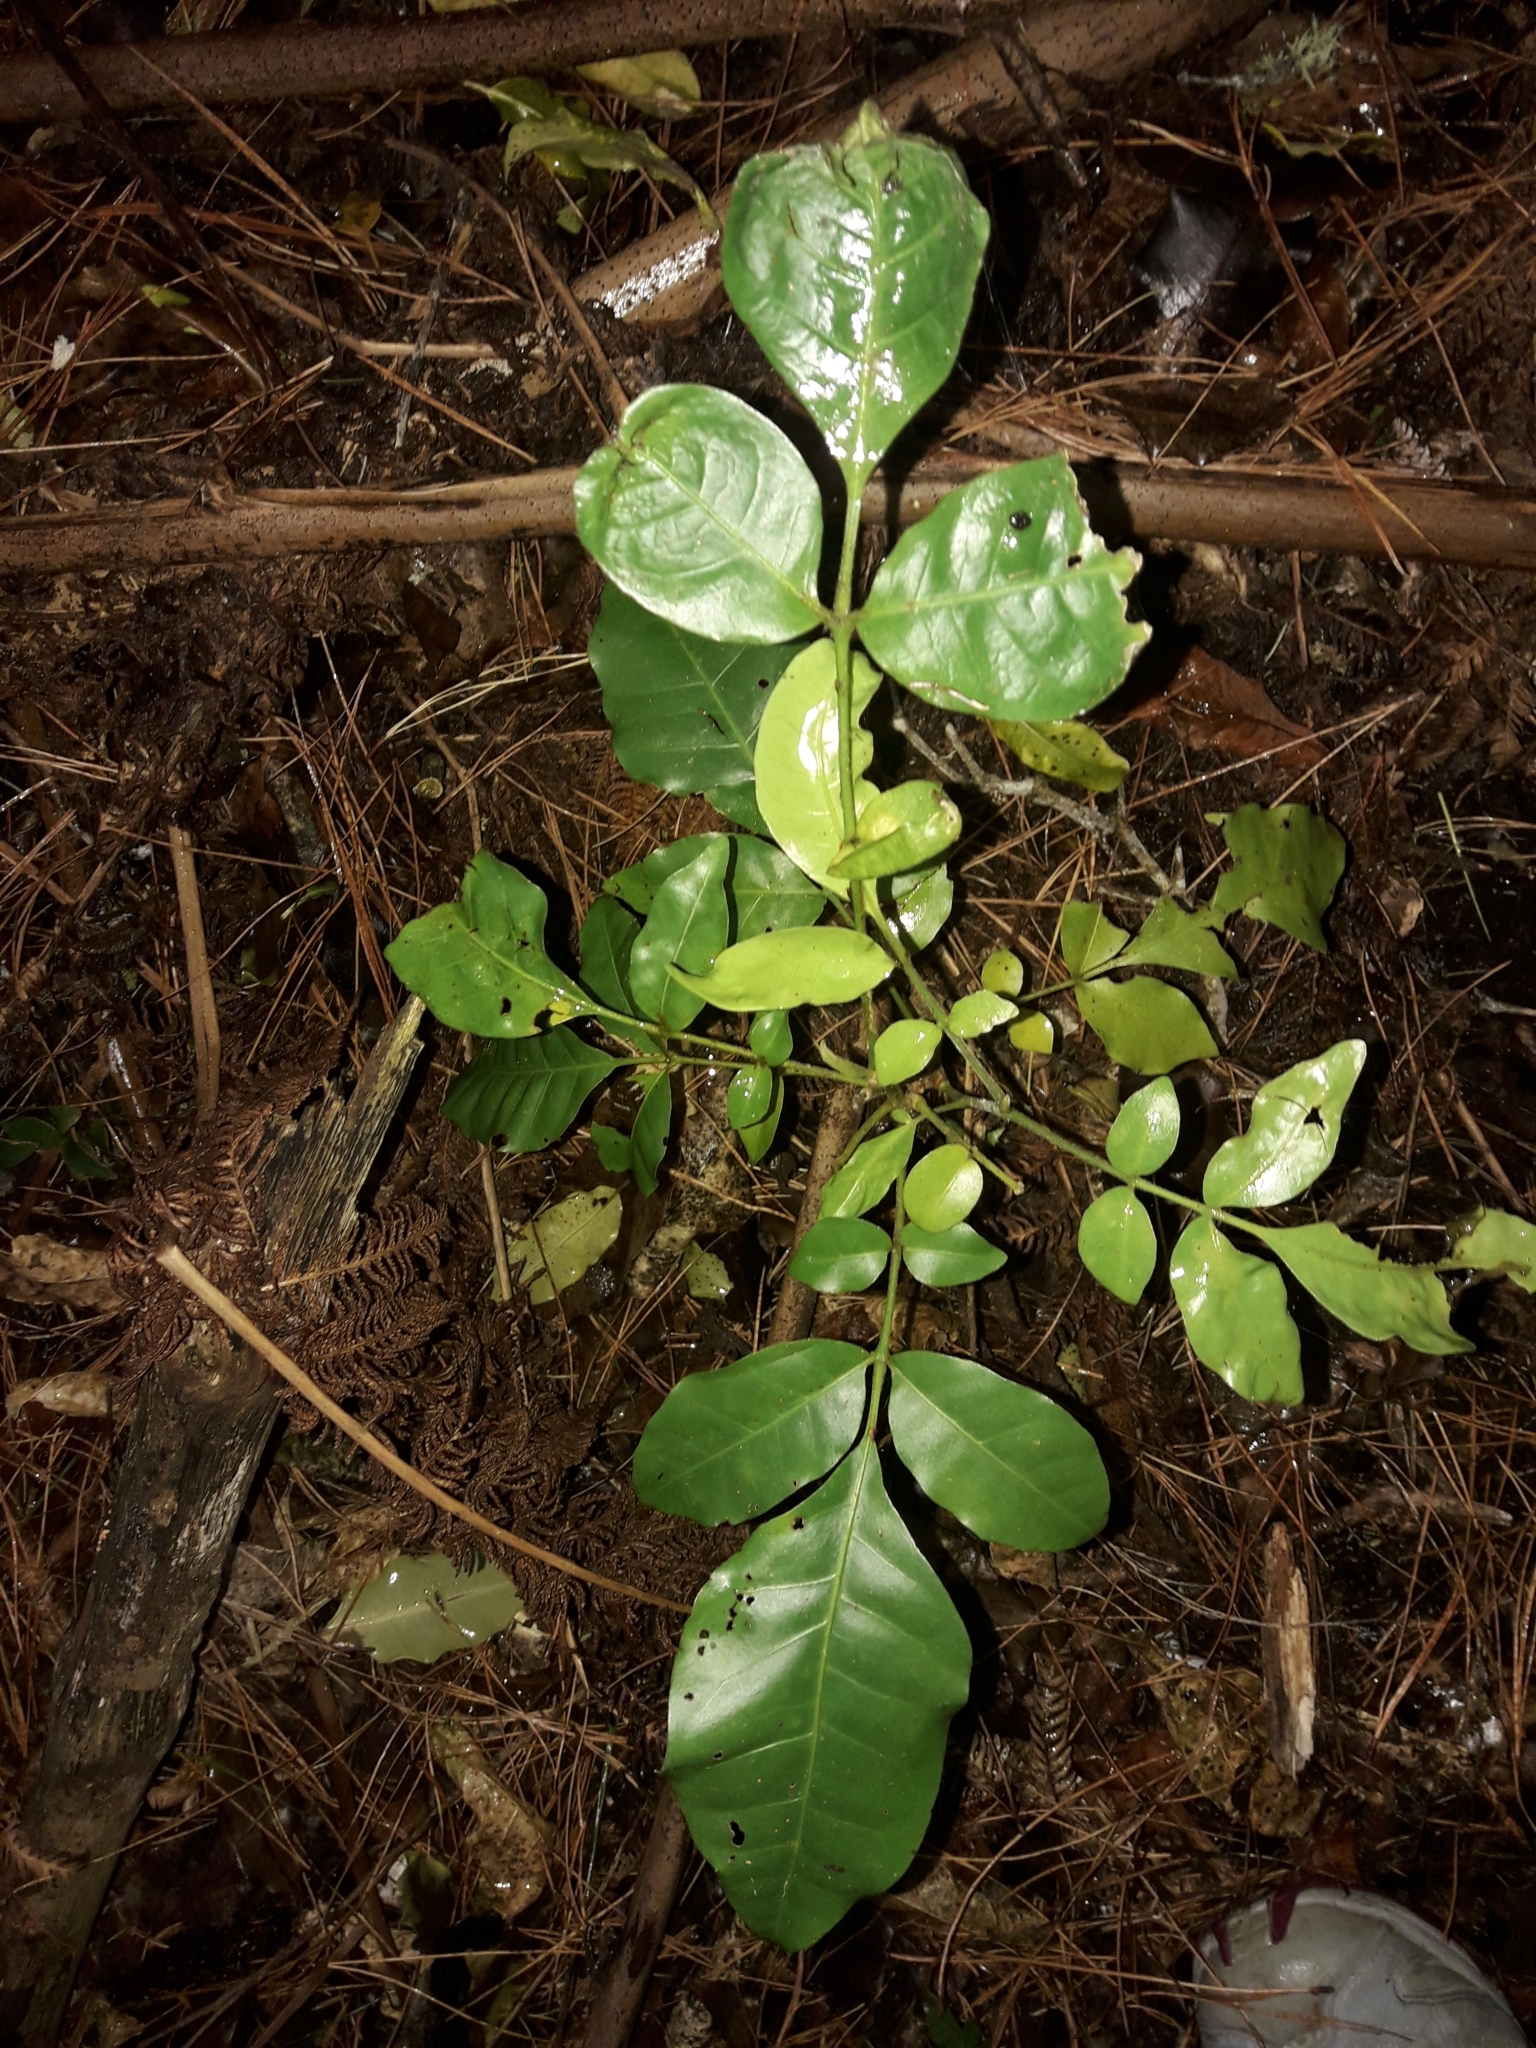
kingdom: Plantae
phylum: Tracheophyta
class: Magnoliopsida
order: Sapindales
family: Meliaceae
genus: Didymocheton
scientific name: Didymocheton spectabilis
